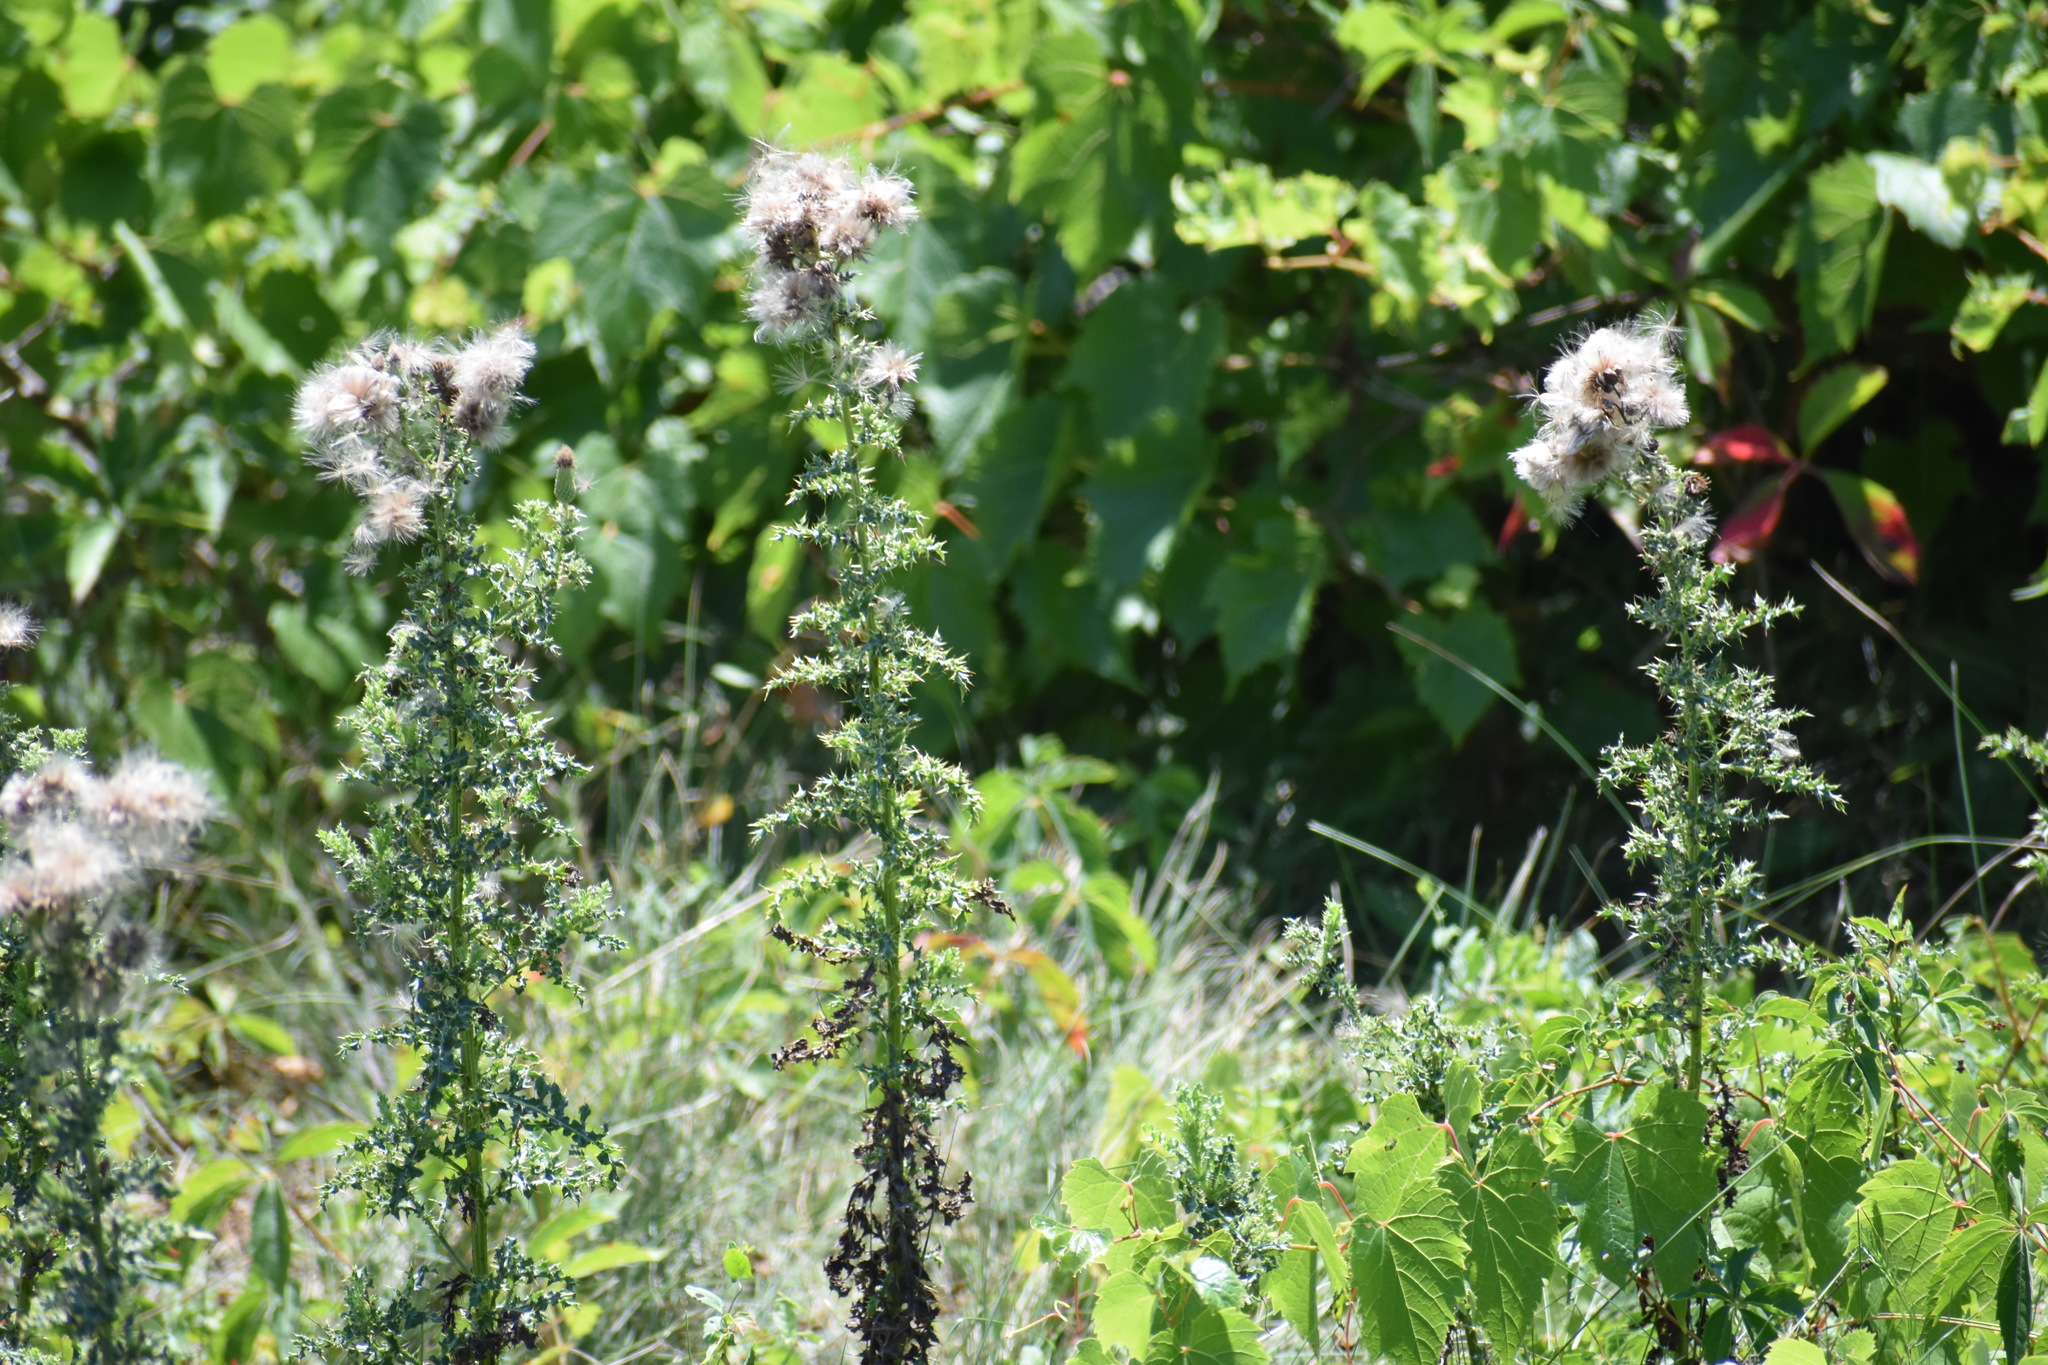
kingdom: Plantae
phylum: Tracheophyta
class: Magnoliopsida
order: Asterales
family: Asteraceae
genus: Cirsium
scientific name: Cirsium arvense
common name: Creeping thistle
